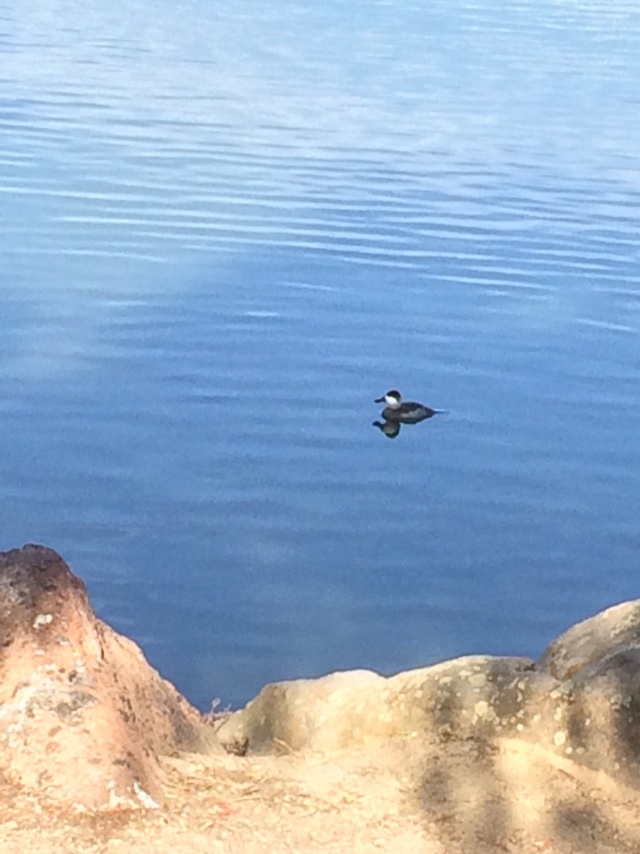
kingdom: Animalia
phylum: Chordata
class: Aves
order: Anseriformes
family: Anatidae
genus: Oxyura
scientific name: Oxyura jamaicensis
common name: Ruddy duck
